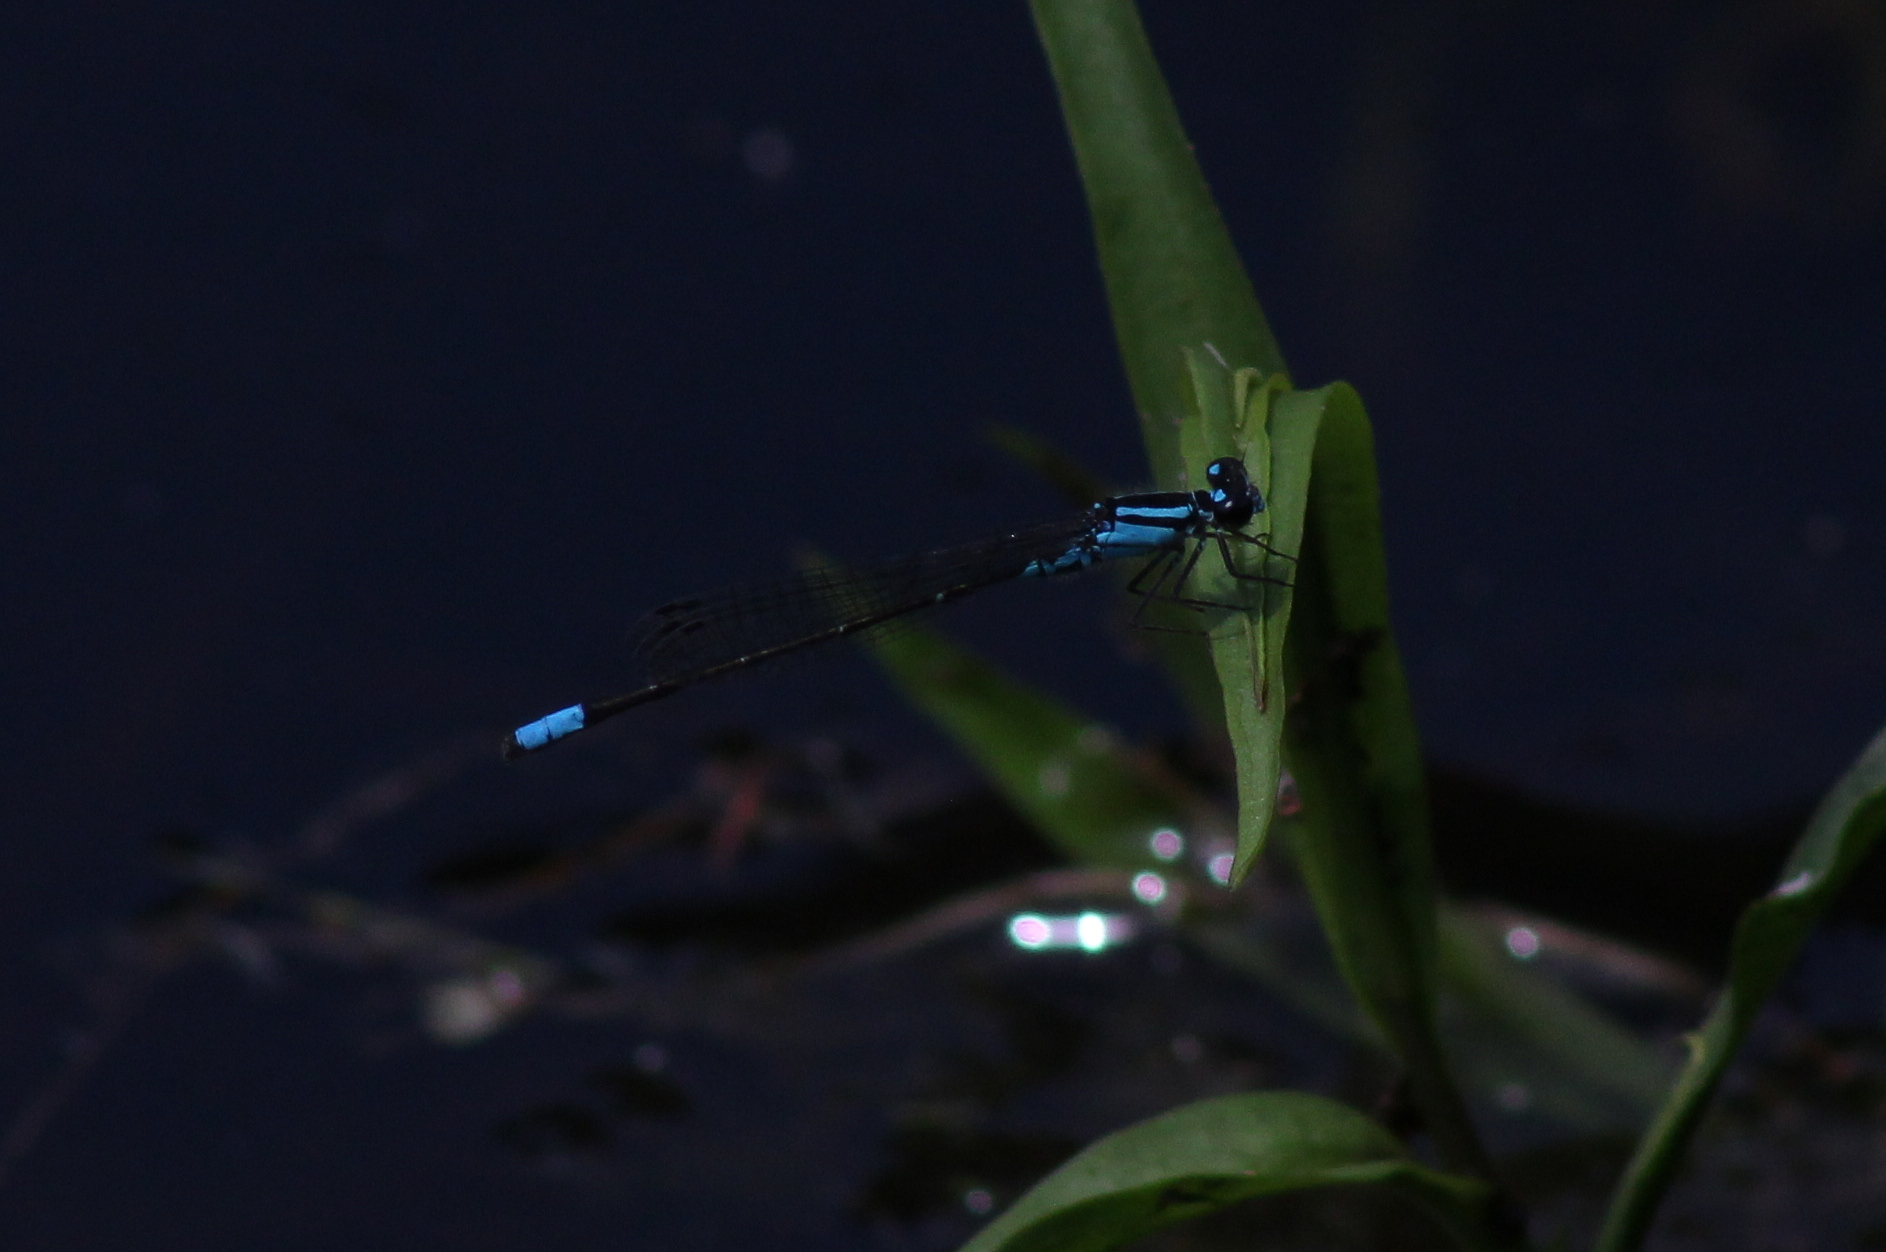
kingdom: Animalia
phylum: Arthropoda
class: Insecta
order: Odonata
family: Coenagrionidae
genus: Enallagma
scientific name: Enallagma geminatum
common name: Skimming bluet
